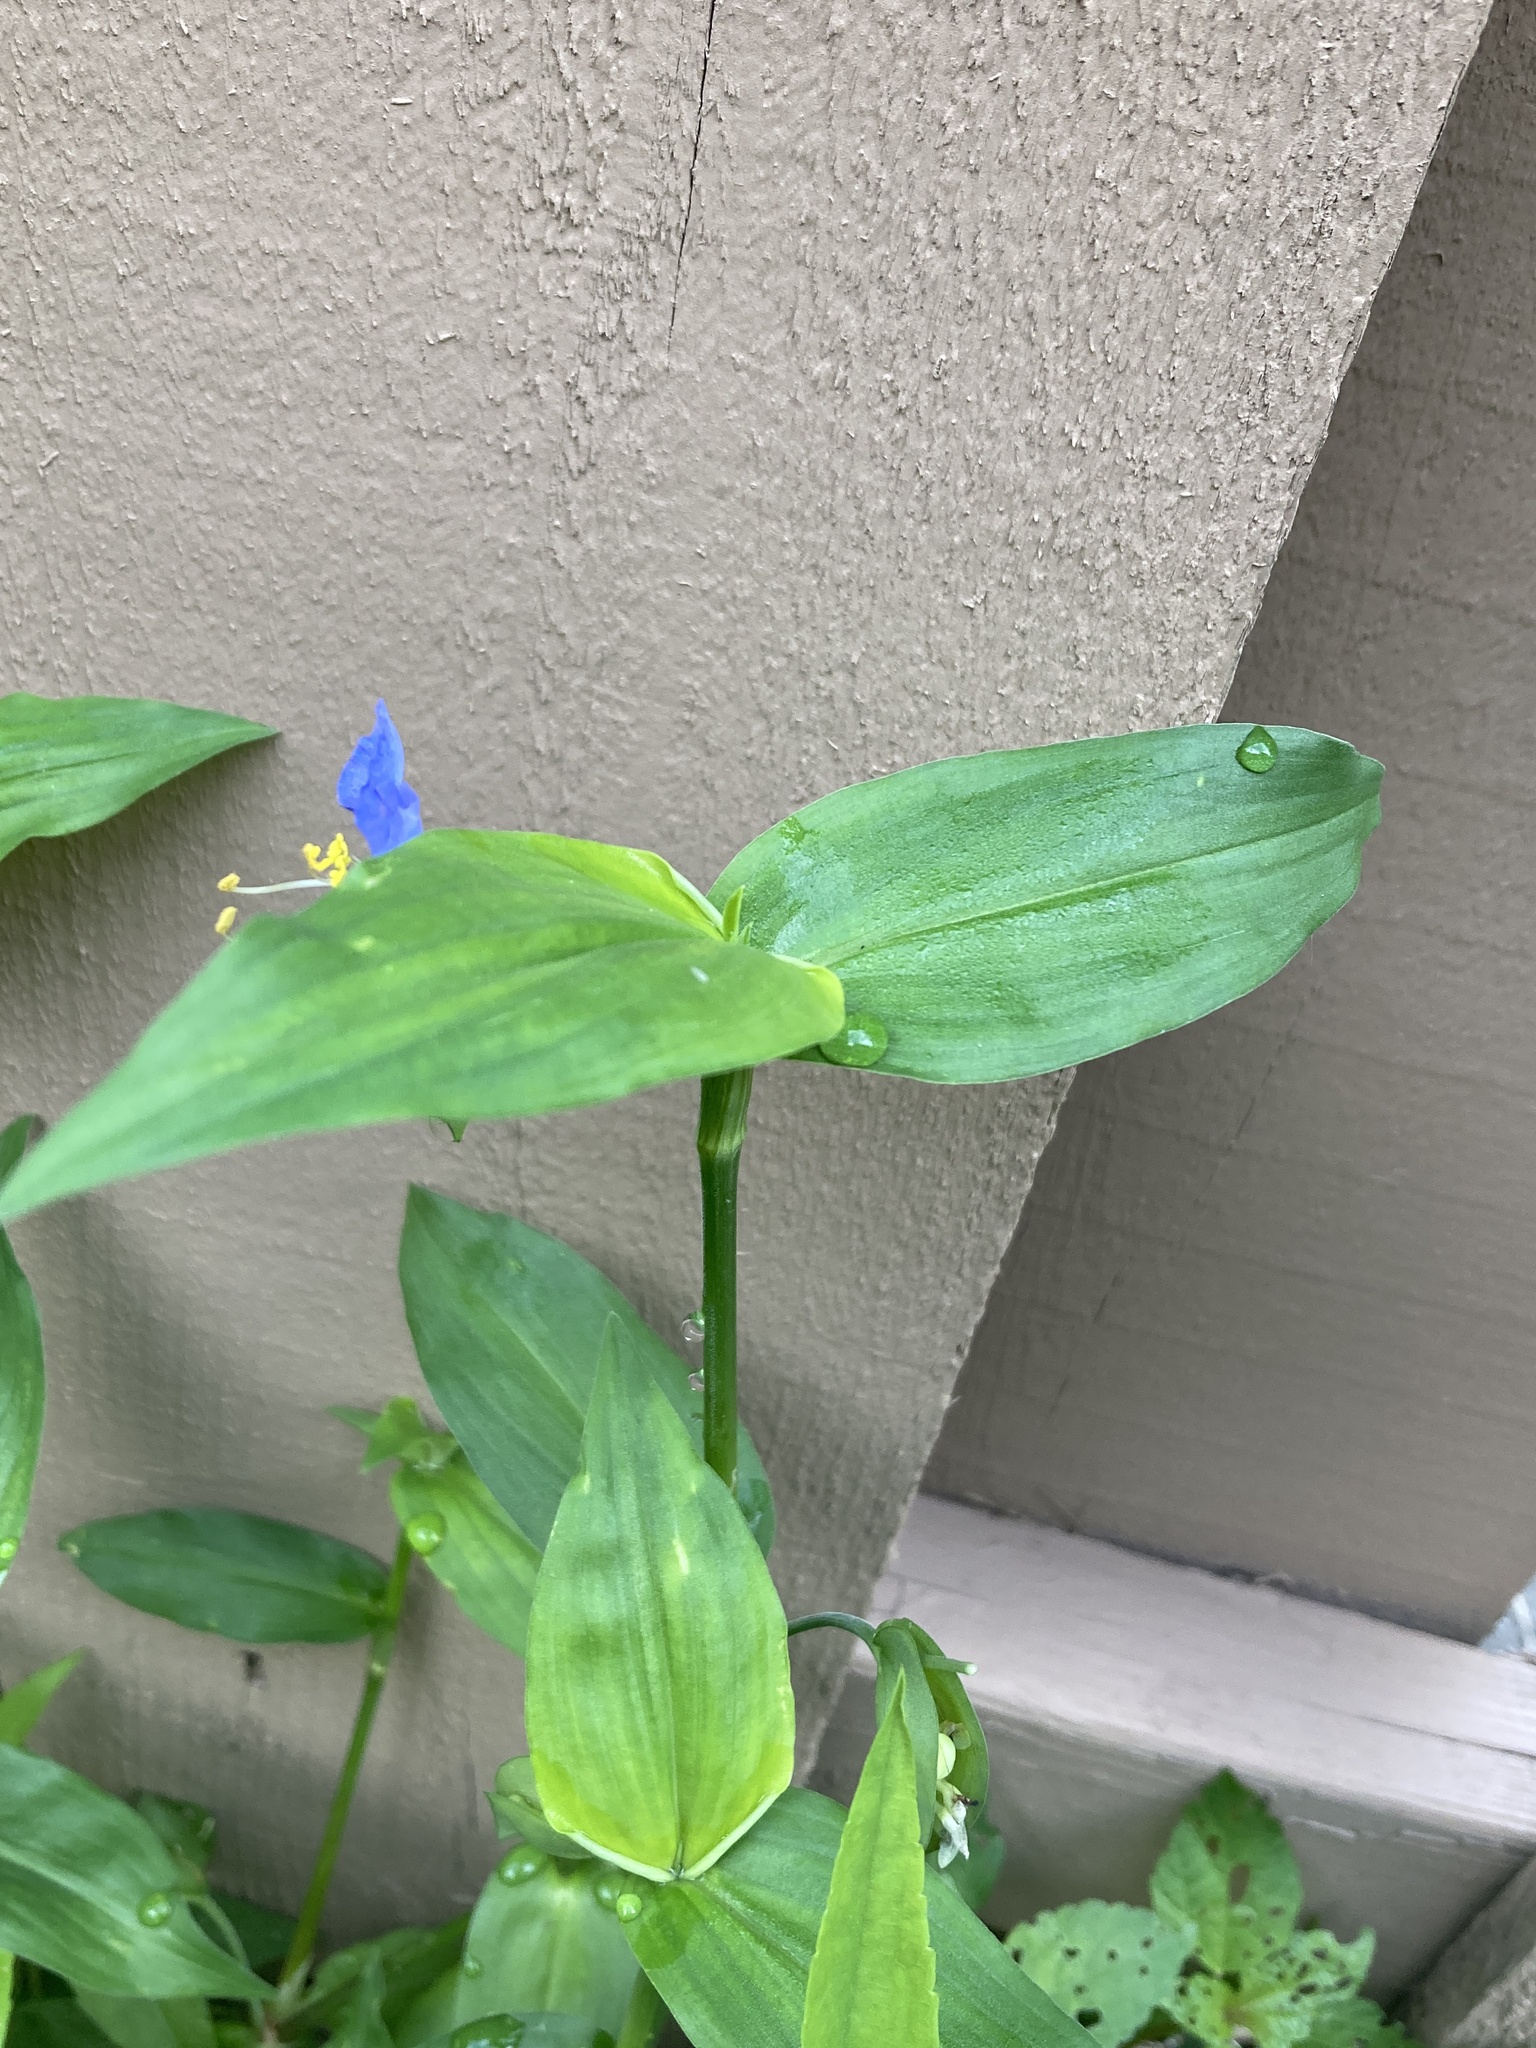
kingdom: Plantae
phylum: Tracheophyta
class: Liliopsida
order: Commelinales
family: Commelinaceae
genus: Commelina
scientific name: Commelina communis
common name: Asiatic dayflower
